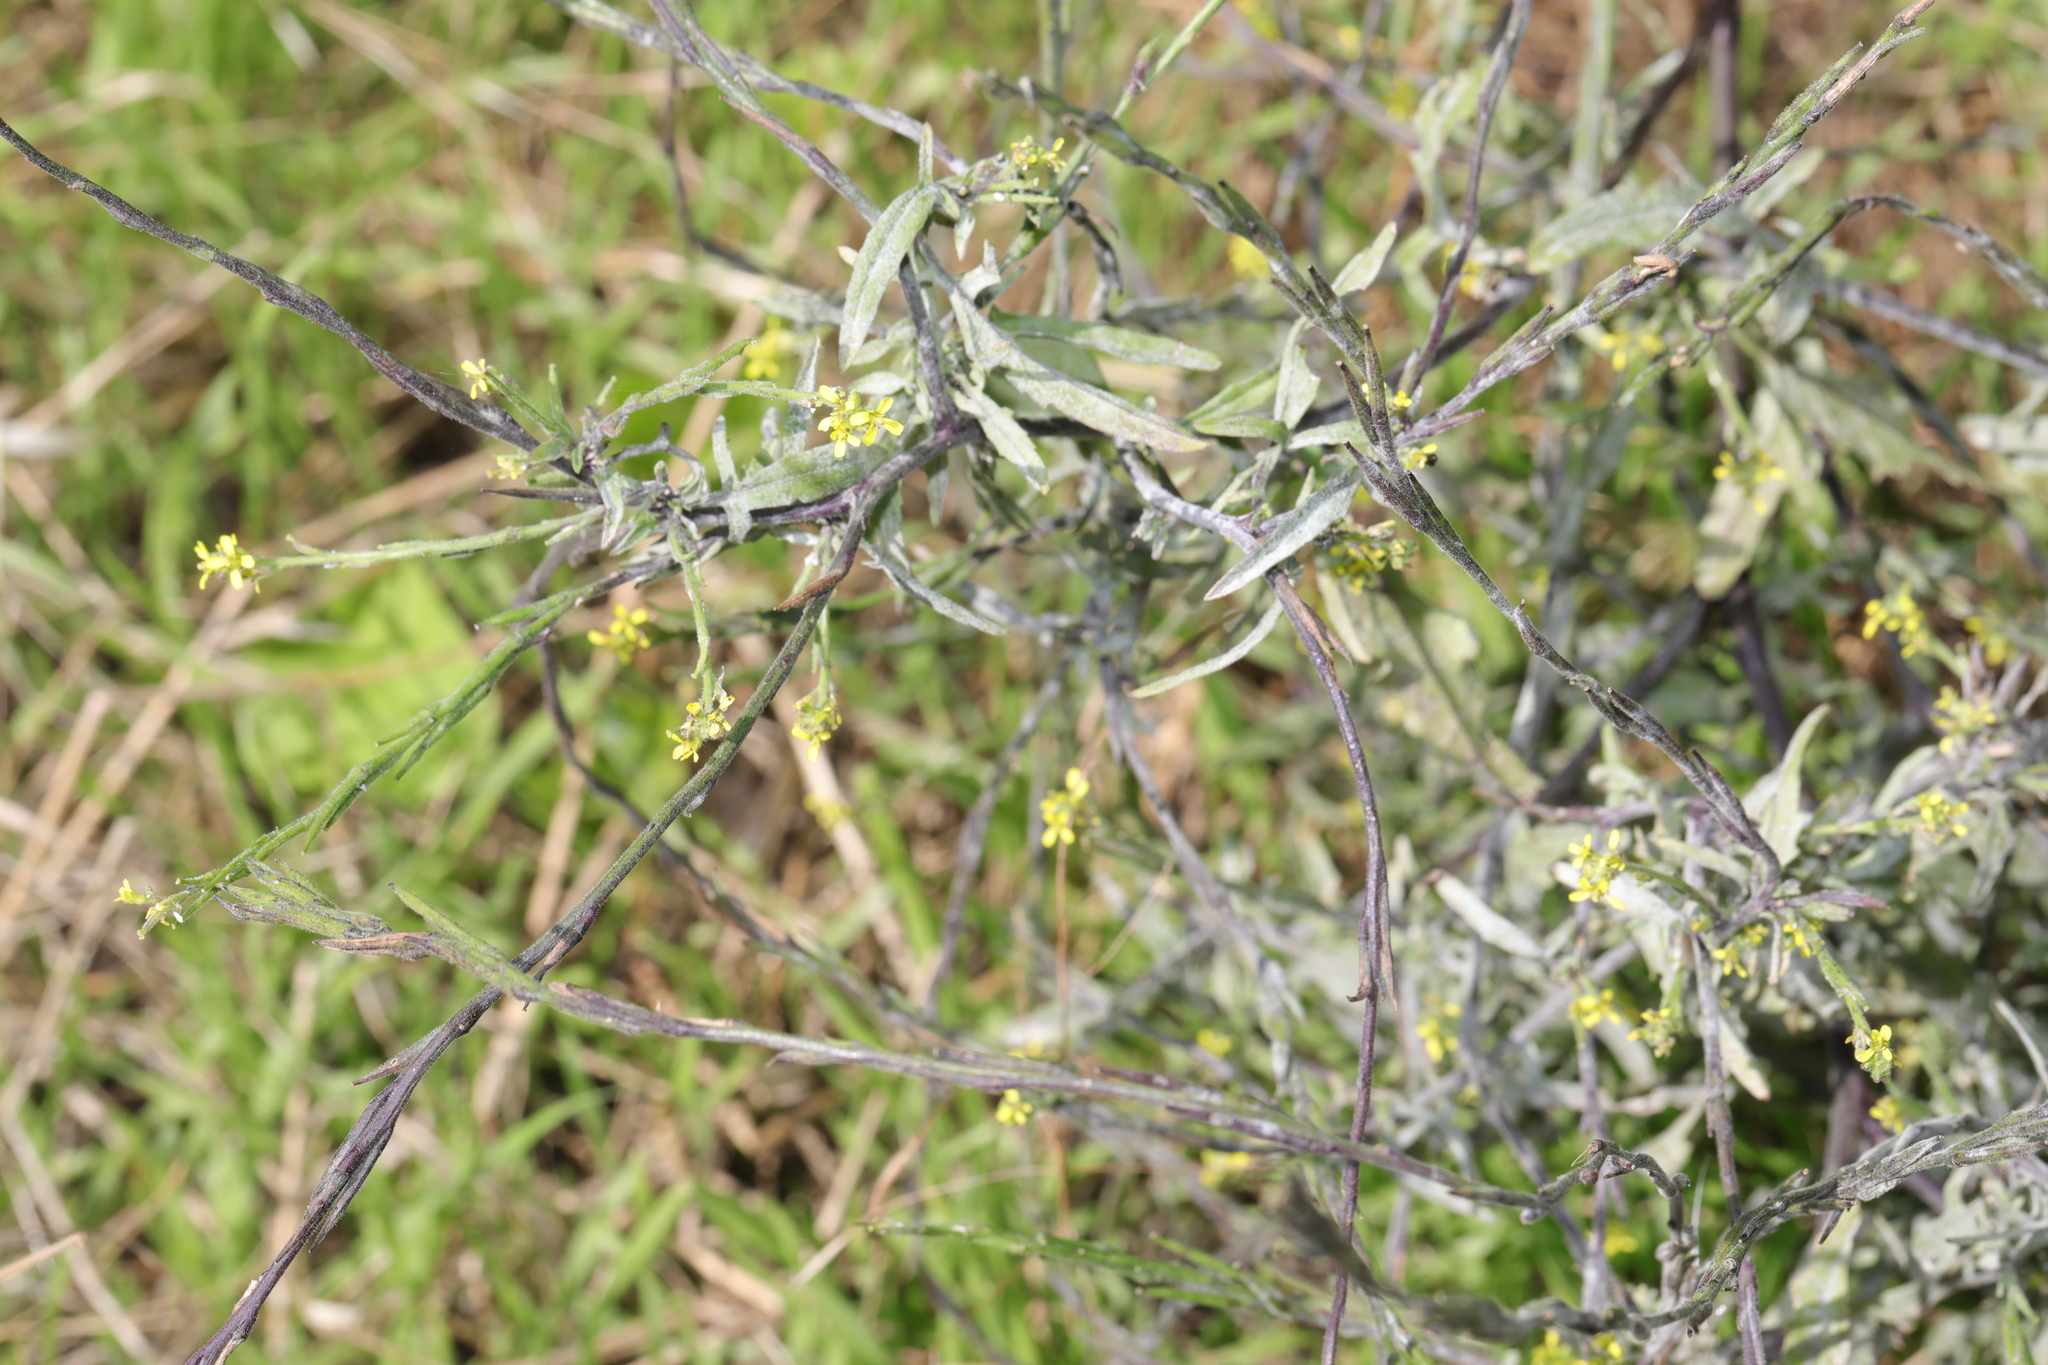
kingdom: Plantae
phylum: Tracheophyta
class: Magnoliopsida
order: Brassicales
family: Brassicaceae
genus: Sisymbrium
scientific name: Sisymbrium officinale
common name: Hedge mustard
